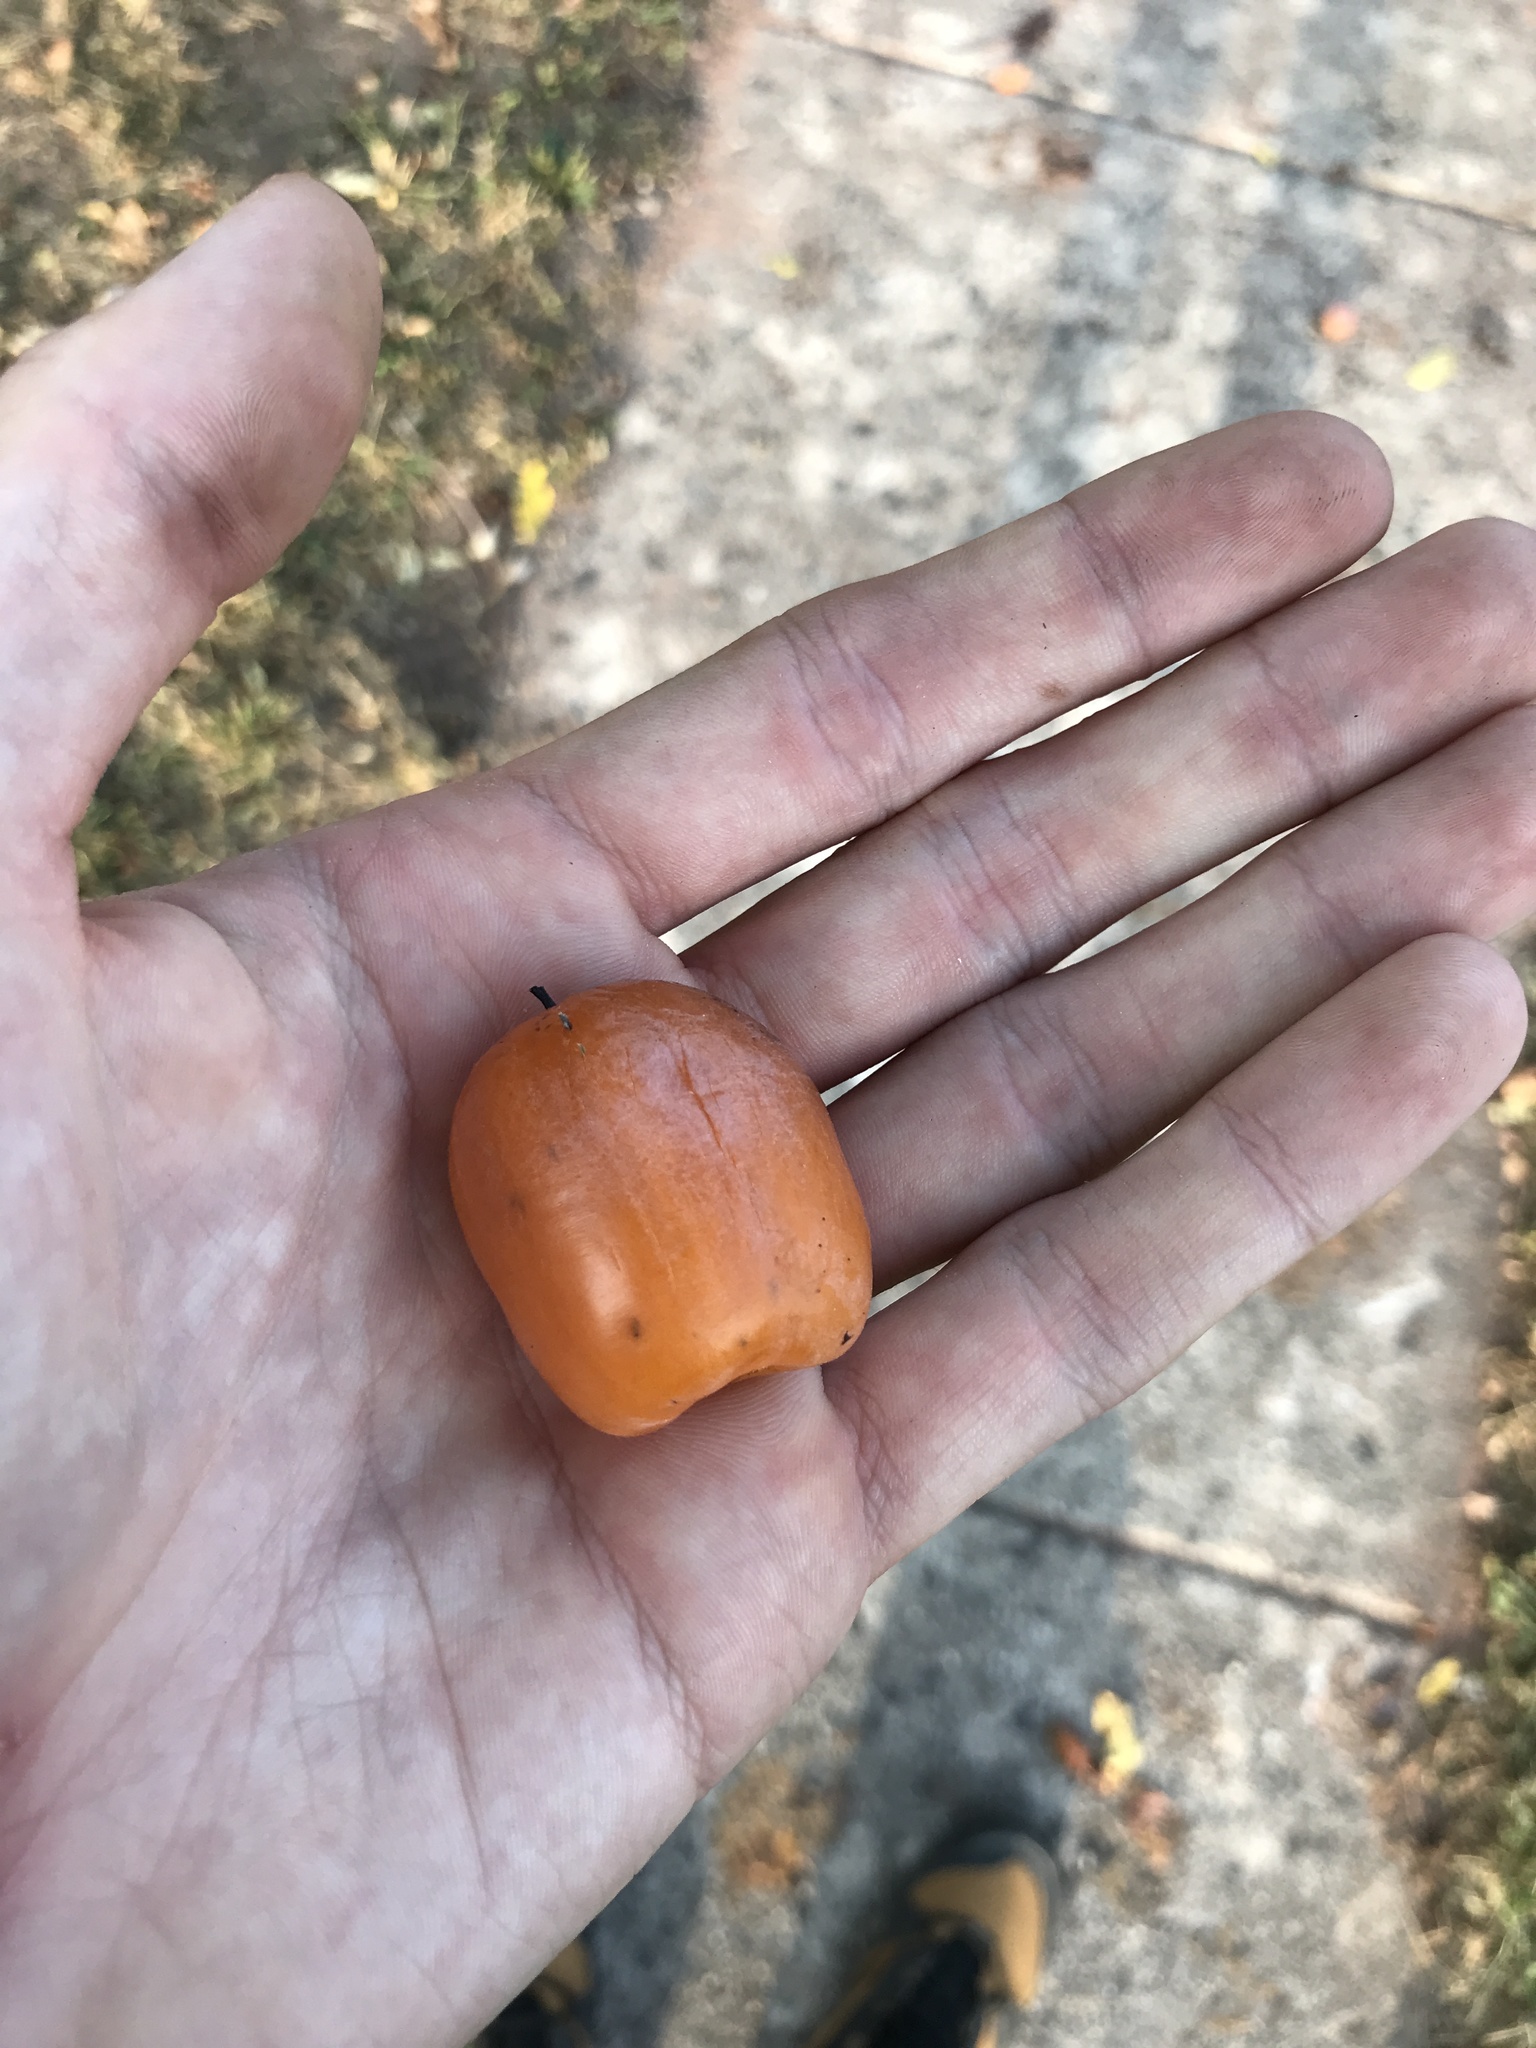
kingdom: Plantae
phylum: Tracheophyta
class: Magnoliopsida
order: Ericales
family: Ebenaceae
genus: Diospyros
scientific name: Diospyros virginiana
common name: Persimmon
